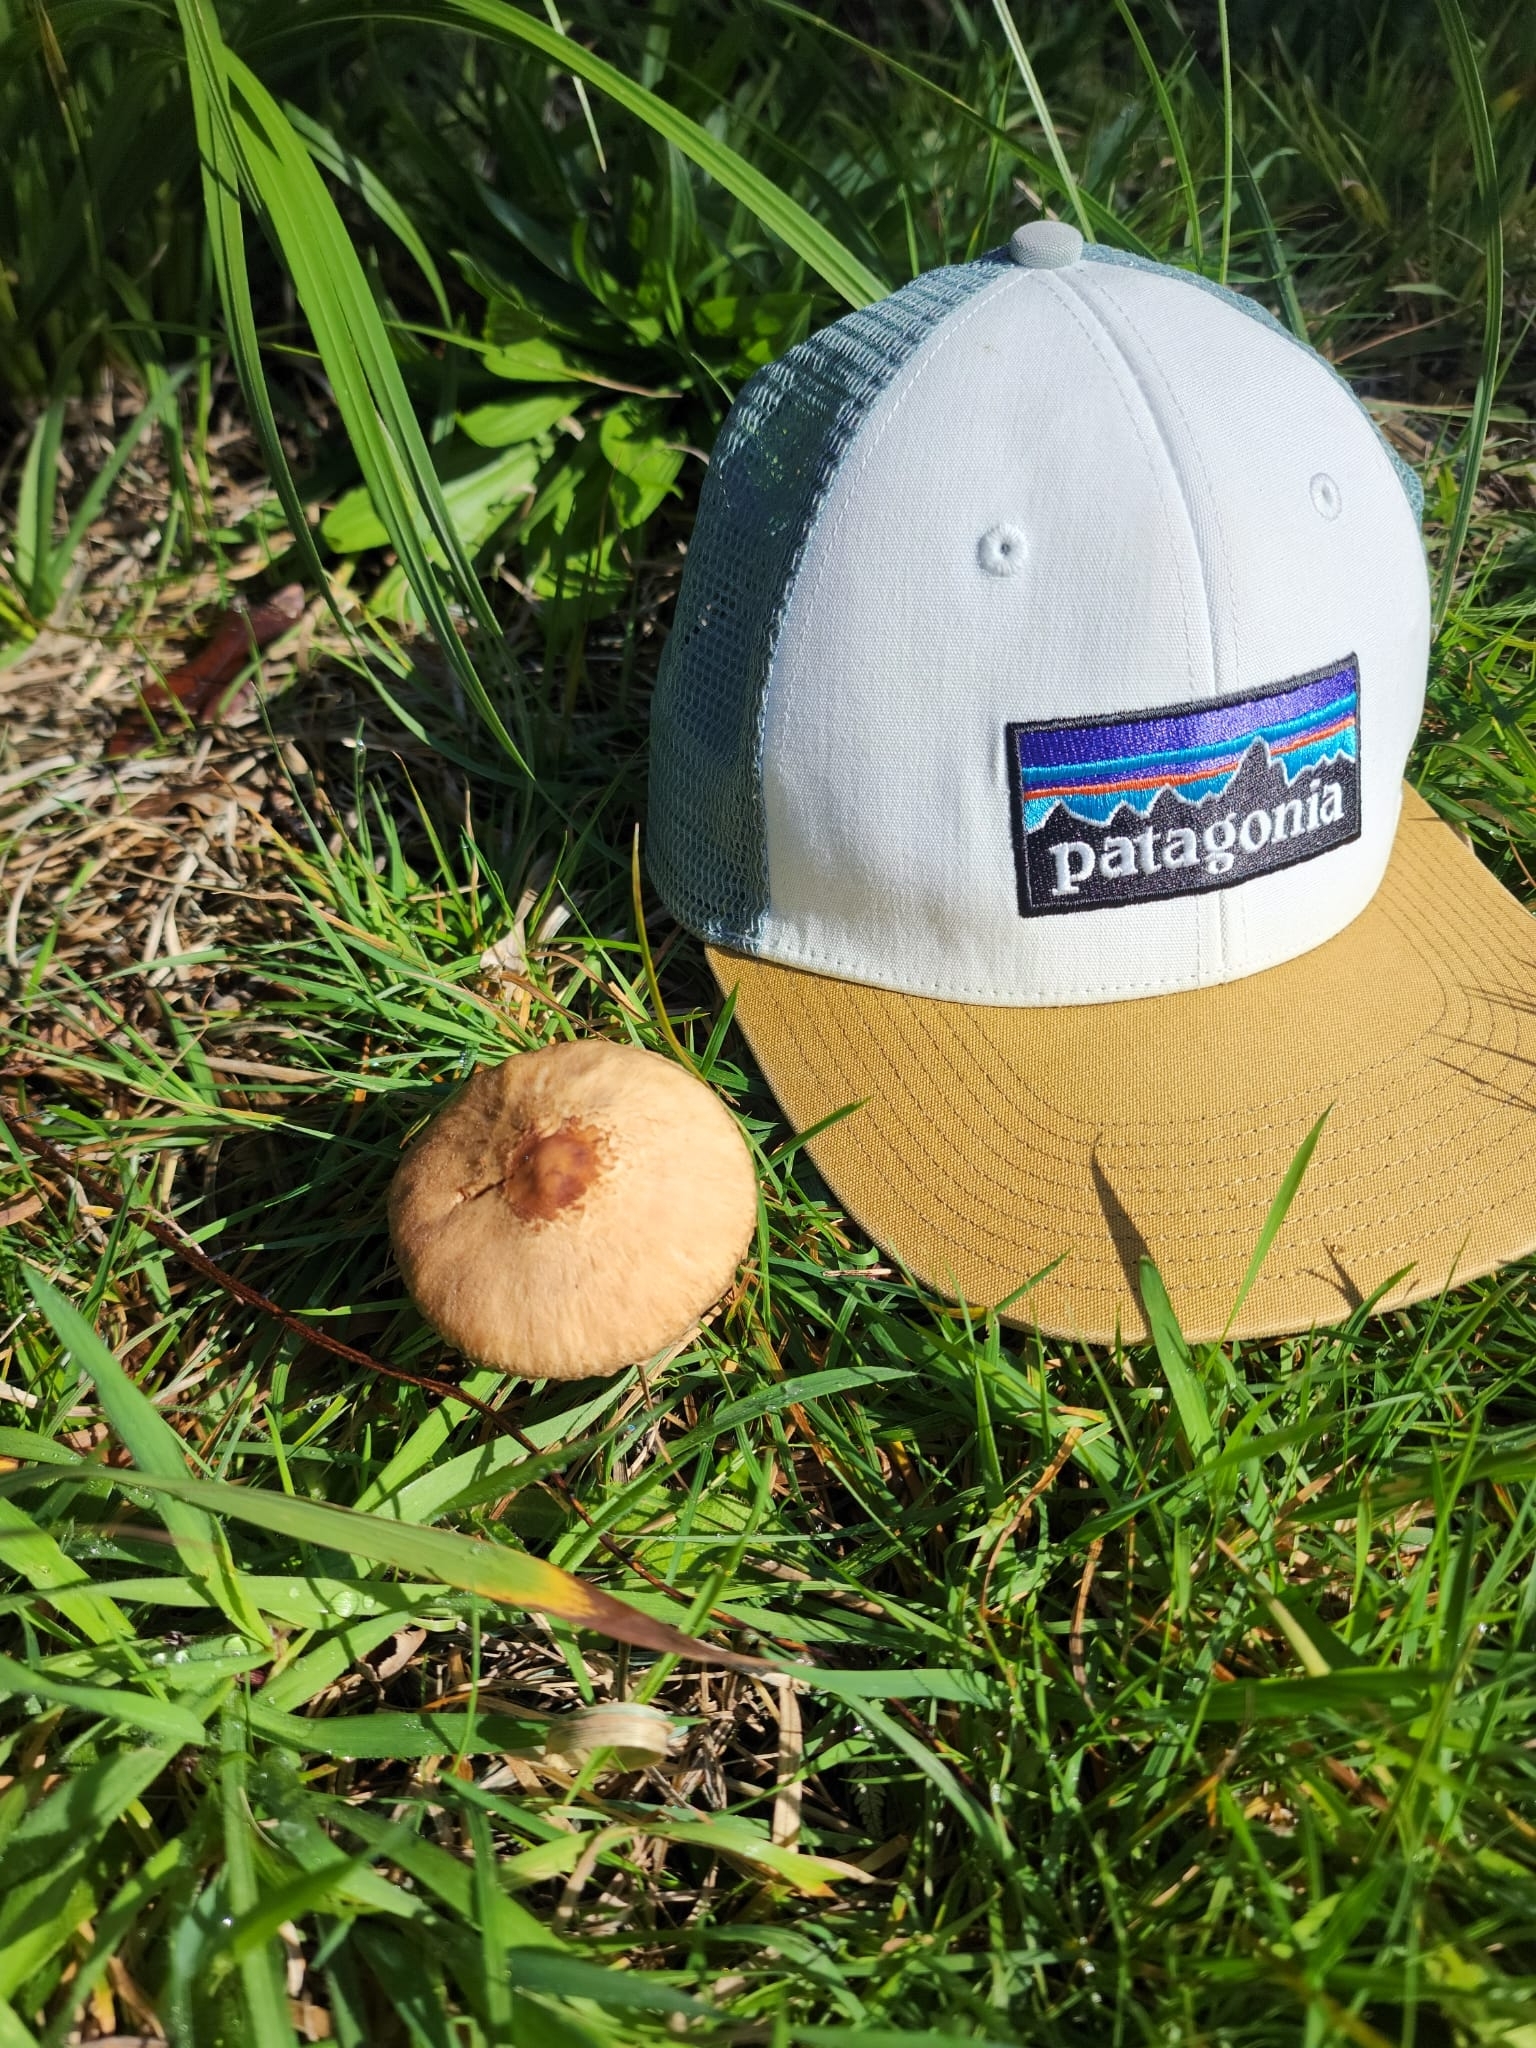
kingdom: Fungi
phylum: Basidiomycota
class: Agaricomycetes
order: Agaricales
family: Agaricaceae
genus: Macrolepiota
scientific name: Macrolepiota clelandii
